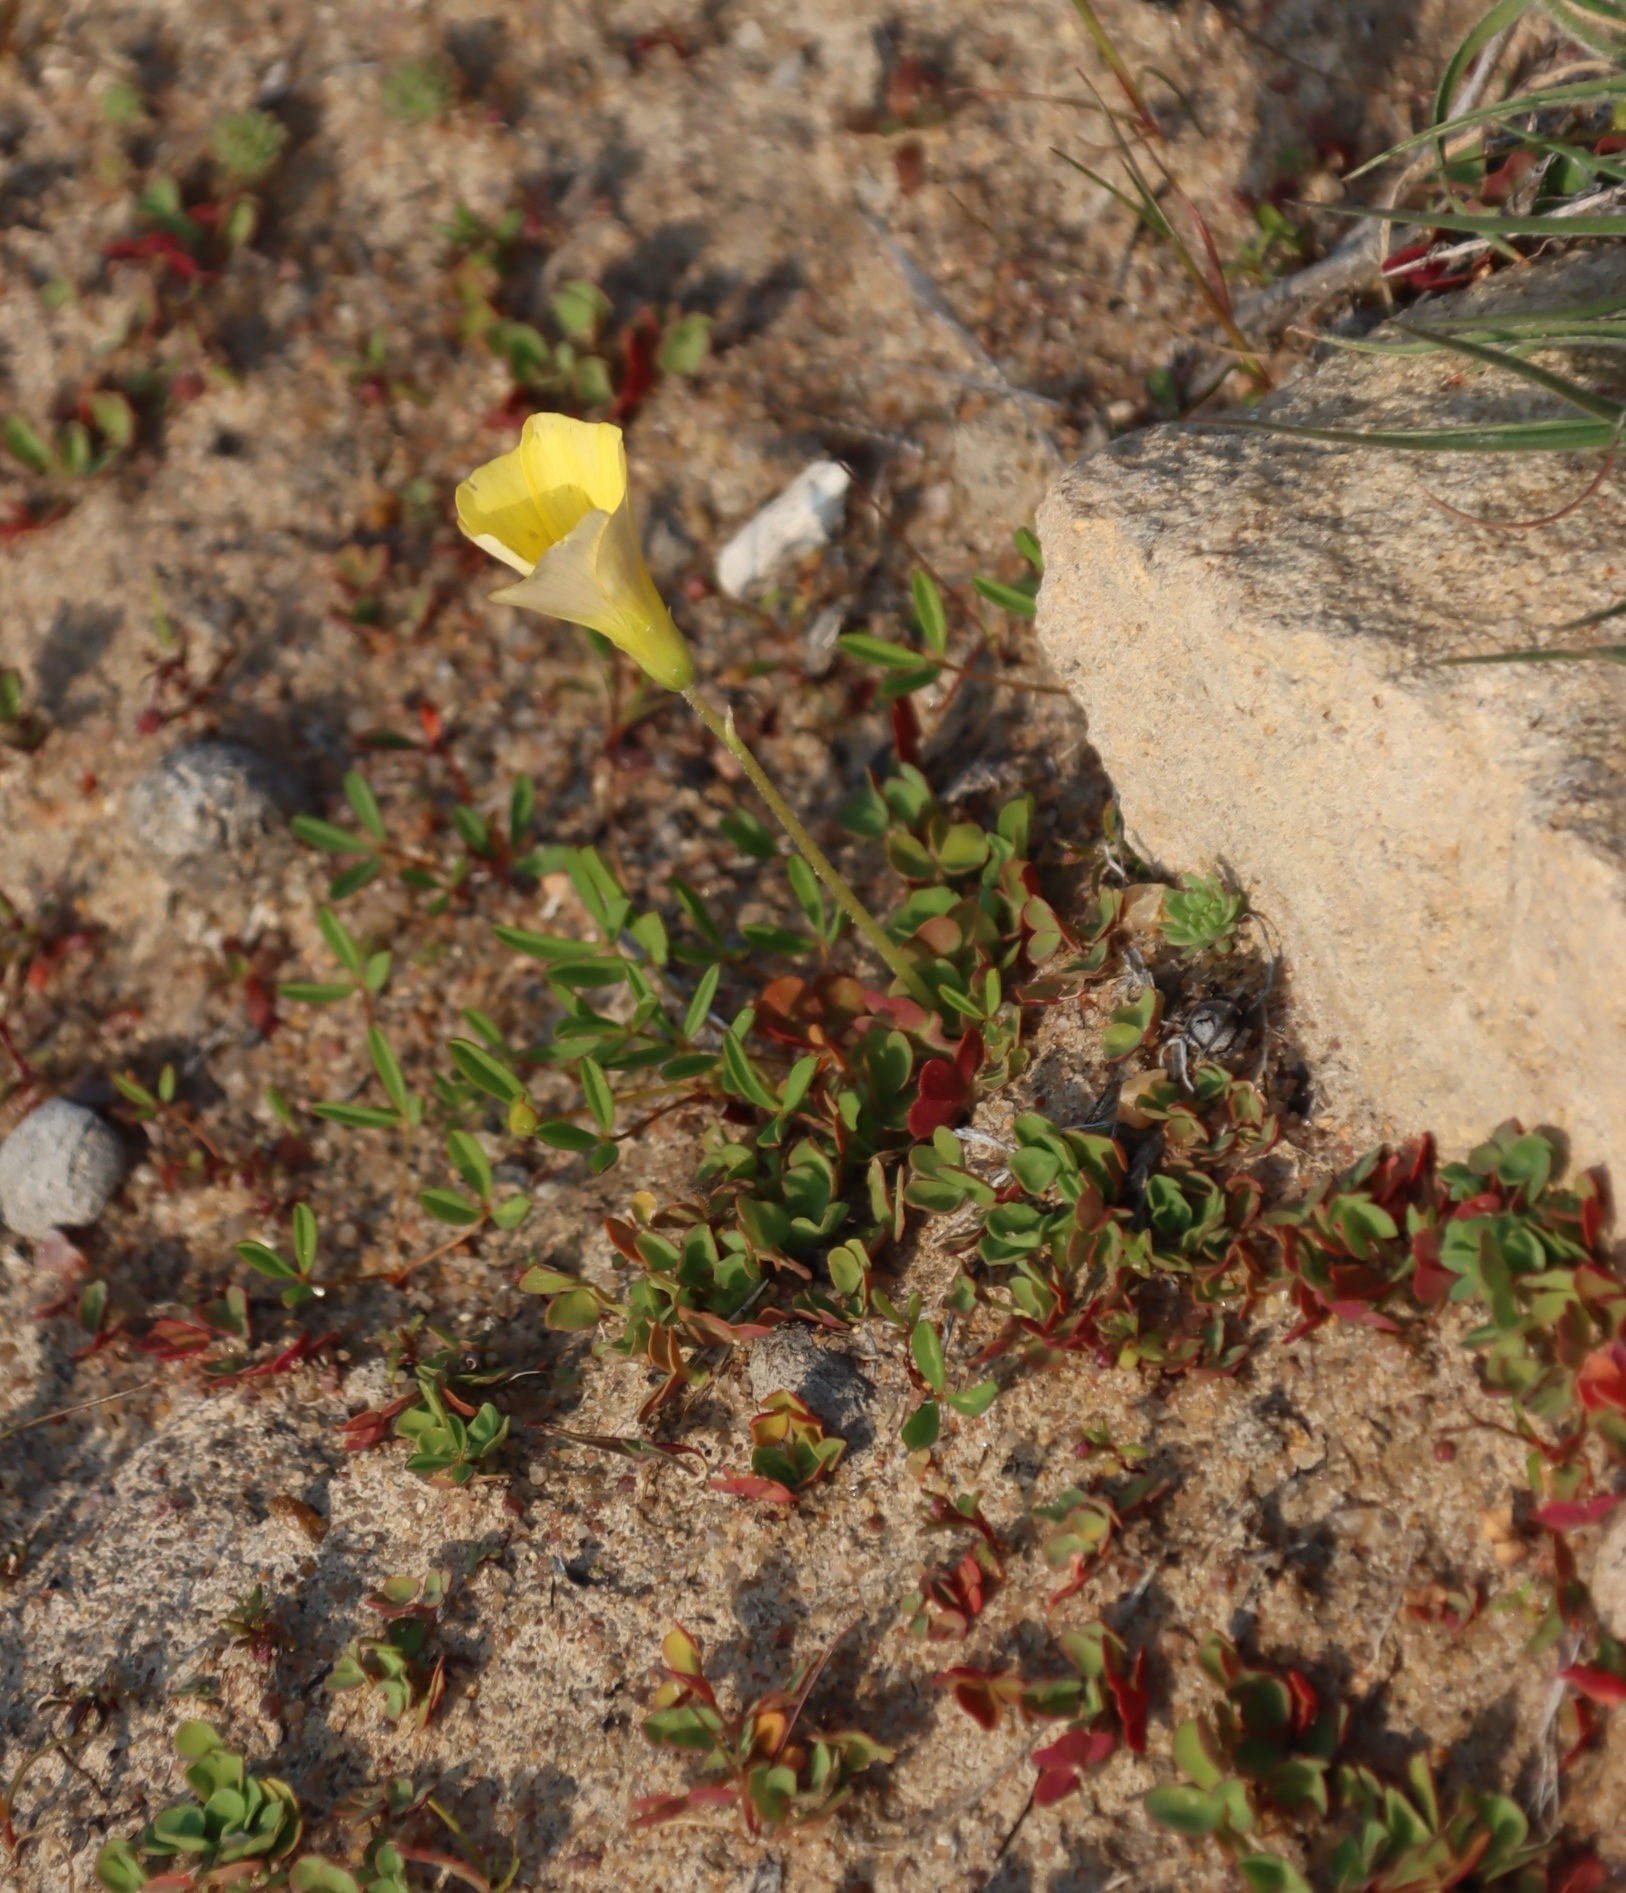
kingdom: Plantae
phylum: Tracheophyta
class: Magnoliopsida
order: Oxalidales
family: Oxalidaceae
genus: Oxalis
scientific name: Oxalis obtusa
